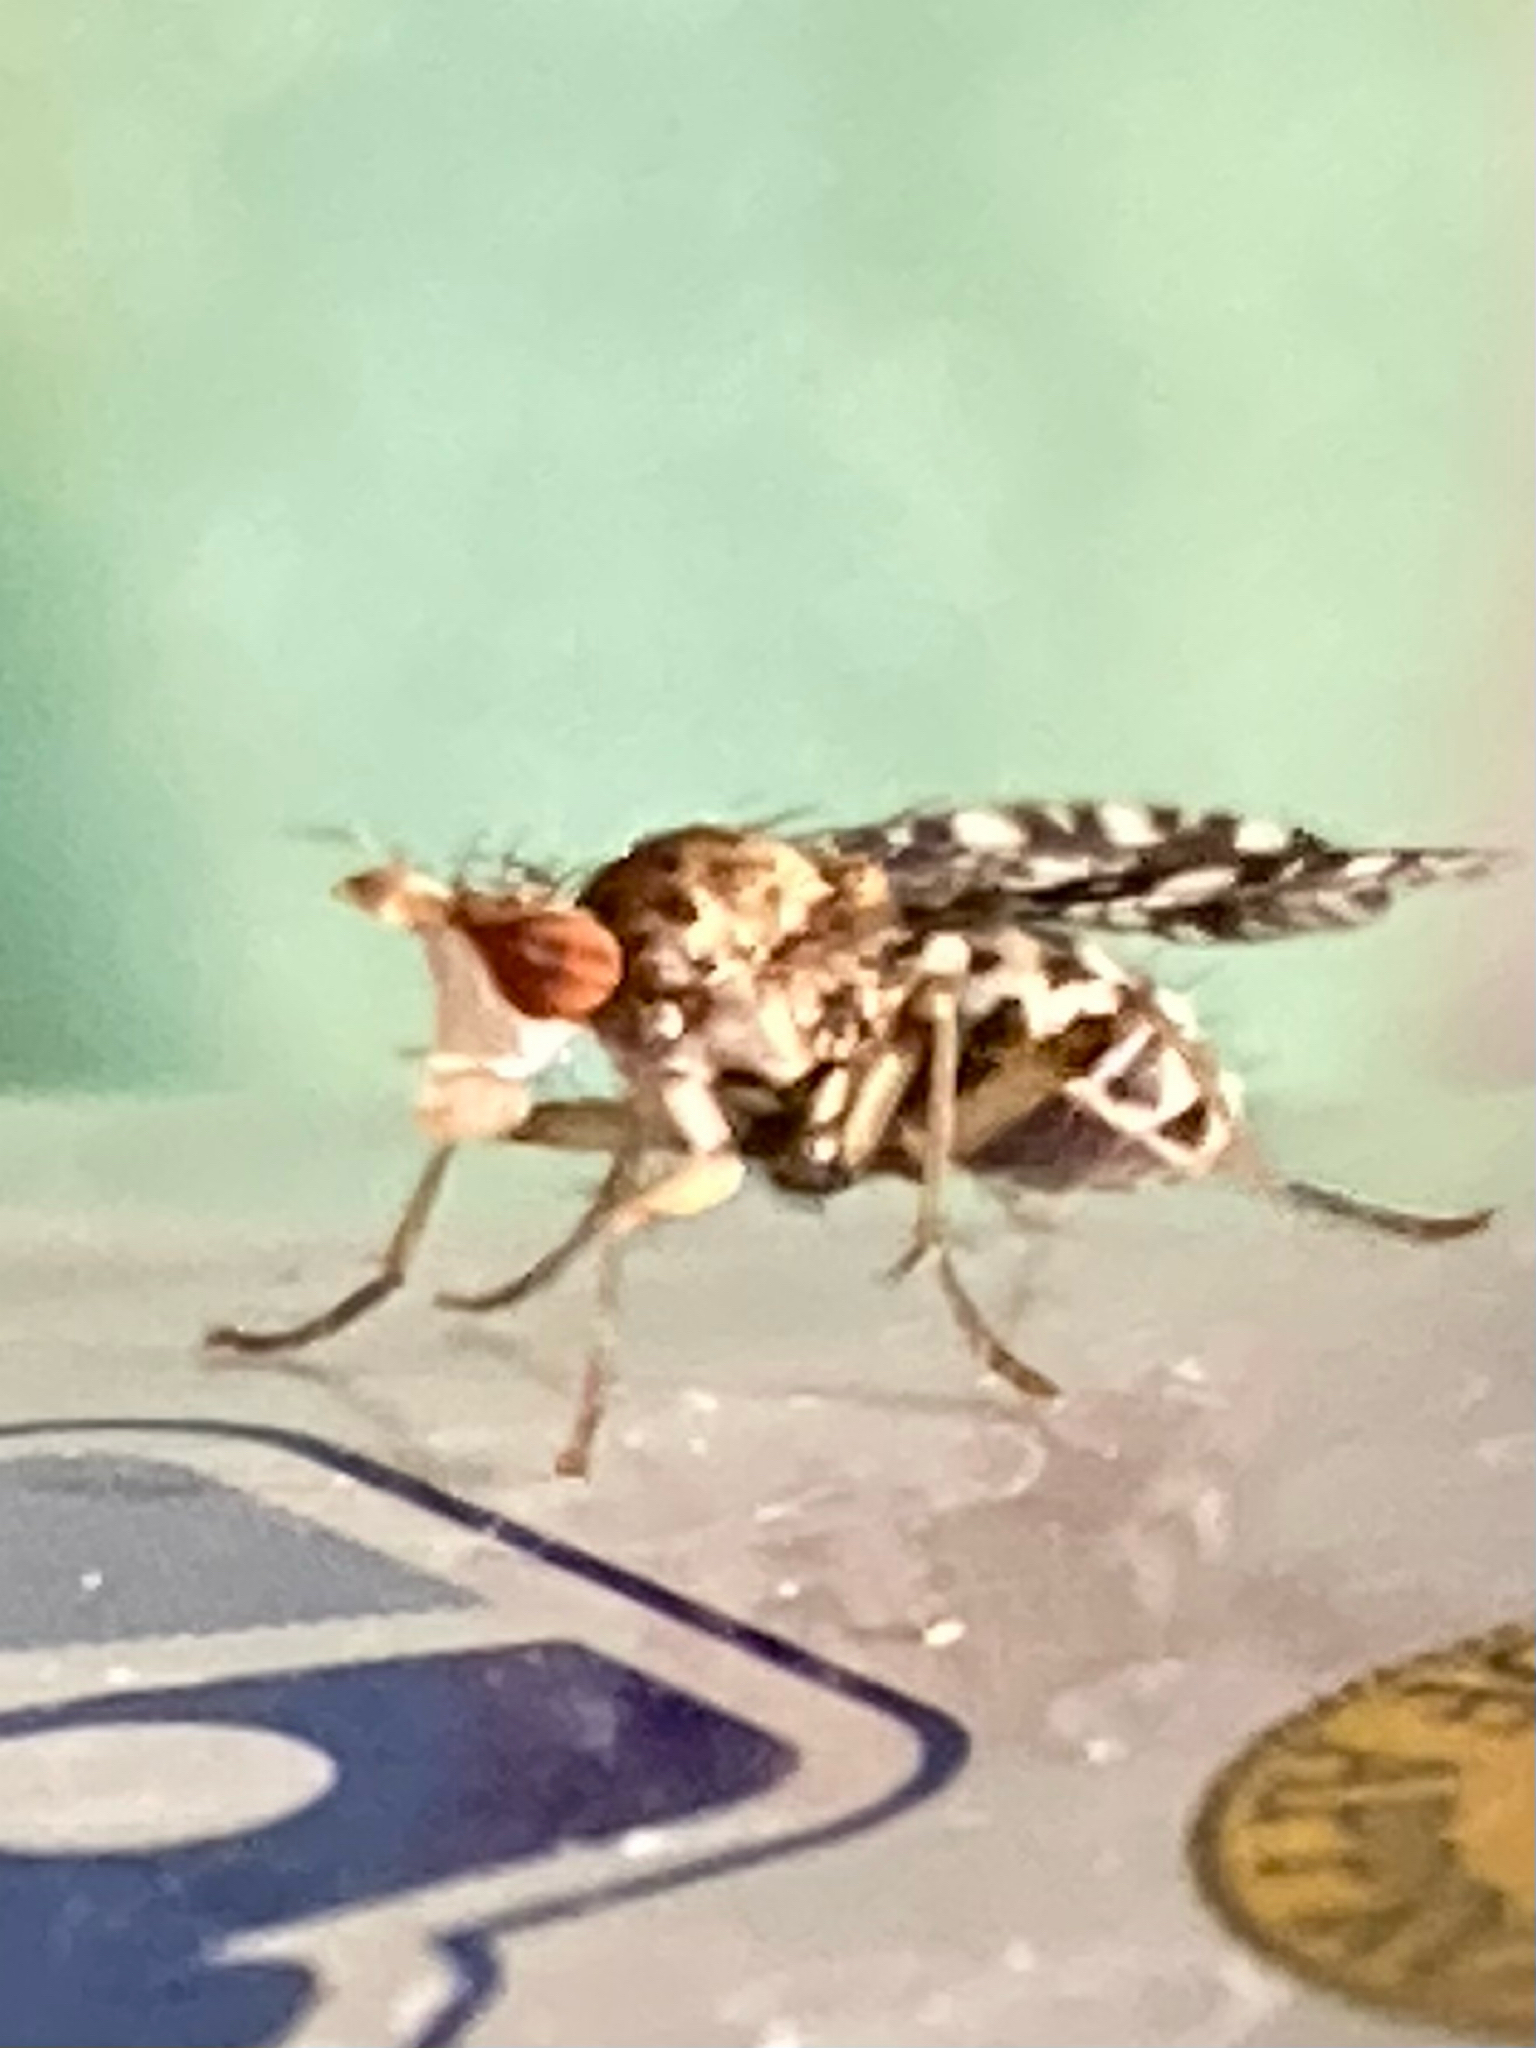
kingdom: Animalia
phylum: Arthropoda
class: Insecta
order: Diptera
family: Sciomyzidae
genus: Trypetoptera
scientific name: Trypetoptera punctulata
